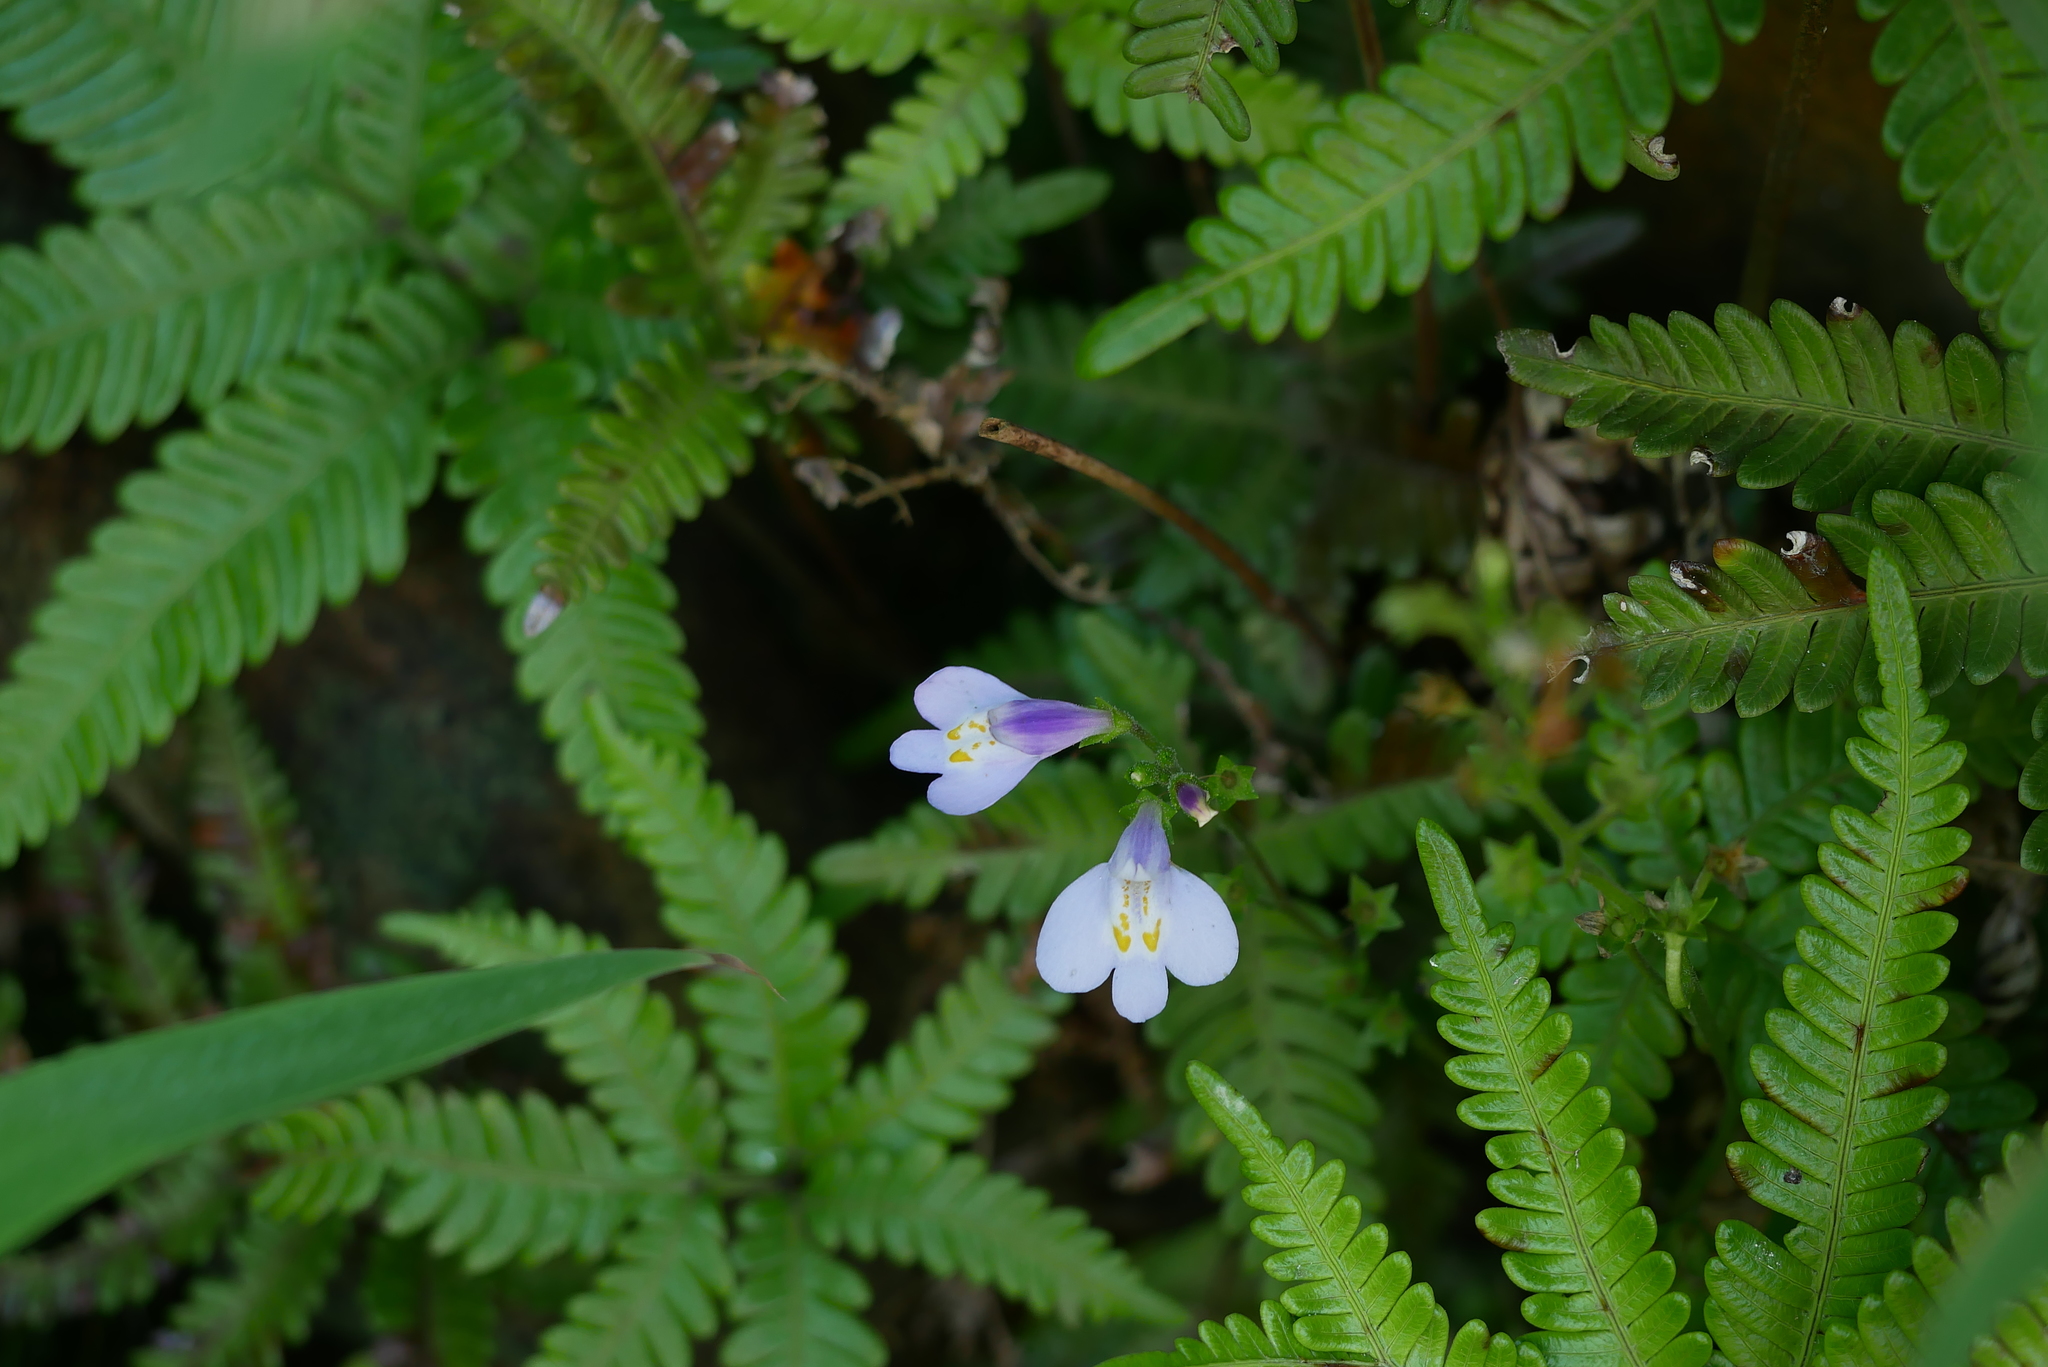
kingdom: Plantae
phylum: Tracheophyta
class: Magnoliopsida
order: Lamiales
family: Mazaceae
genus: Mazus
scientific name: Mazus fauriei
